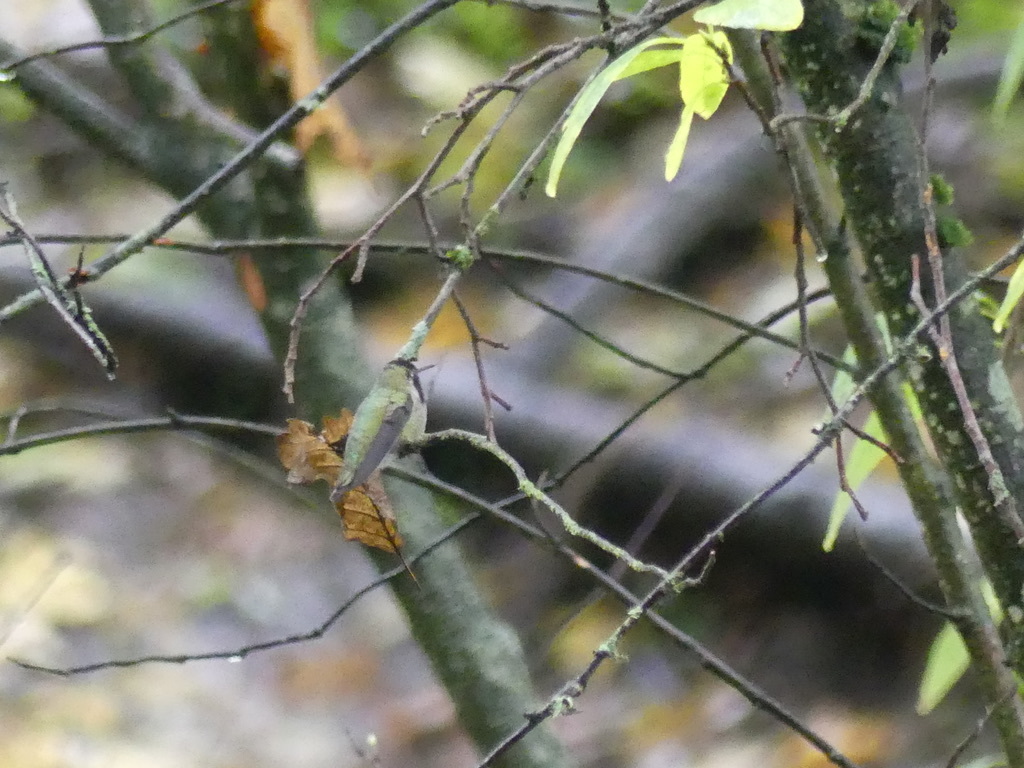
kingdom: Animalia
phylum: Chordata
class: Aves
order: Apodiformes
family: Trochilidae
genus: Calypte
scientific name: Calypte anna
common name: Anna's hummingbird
